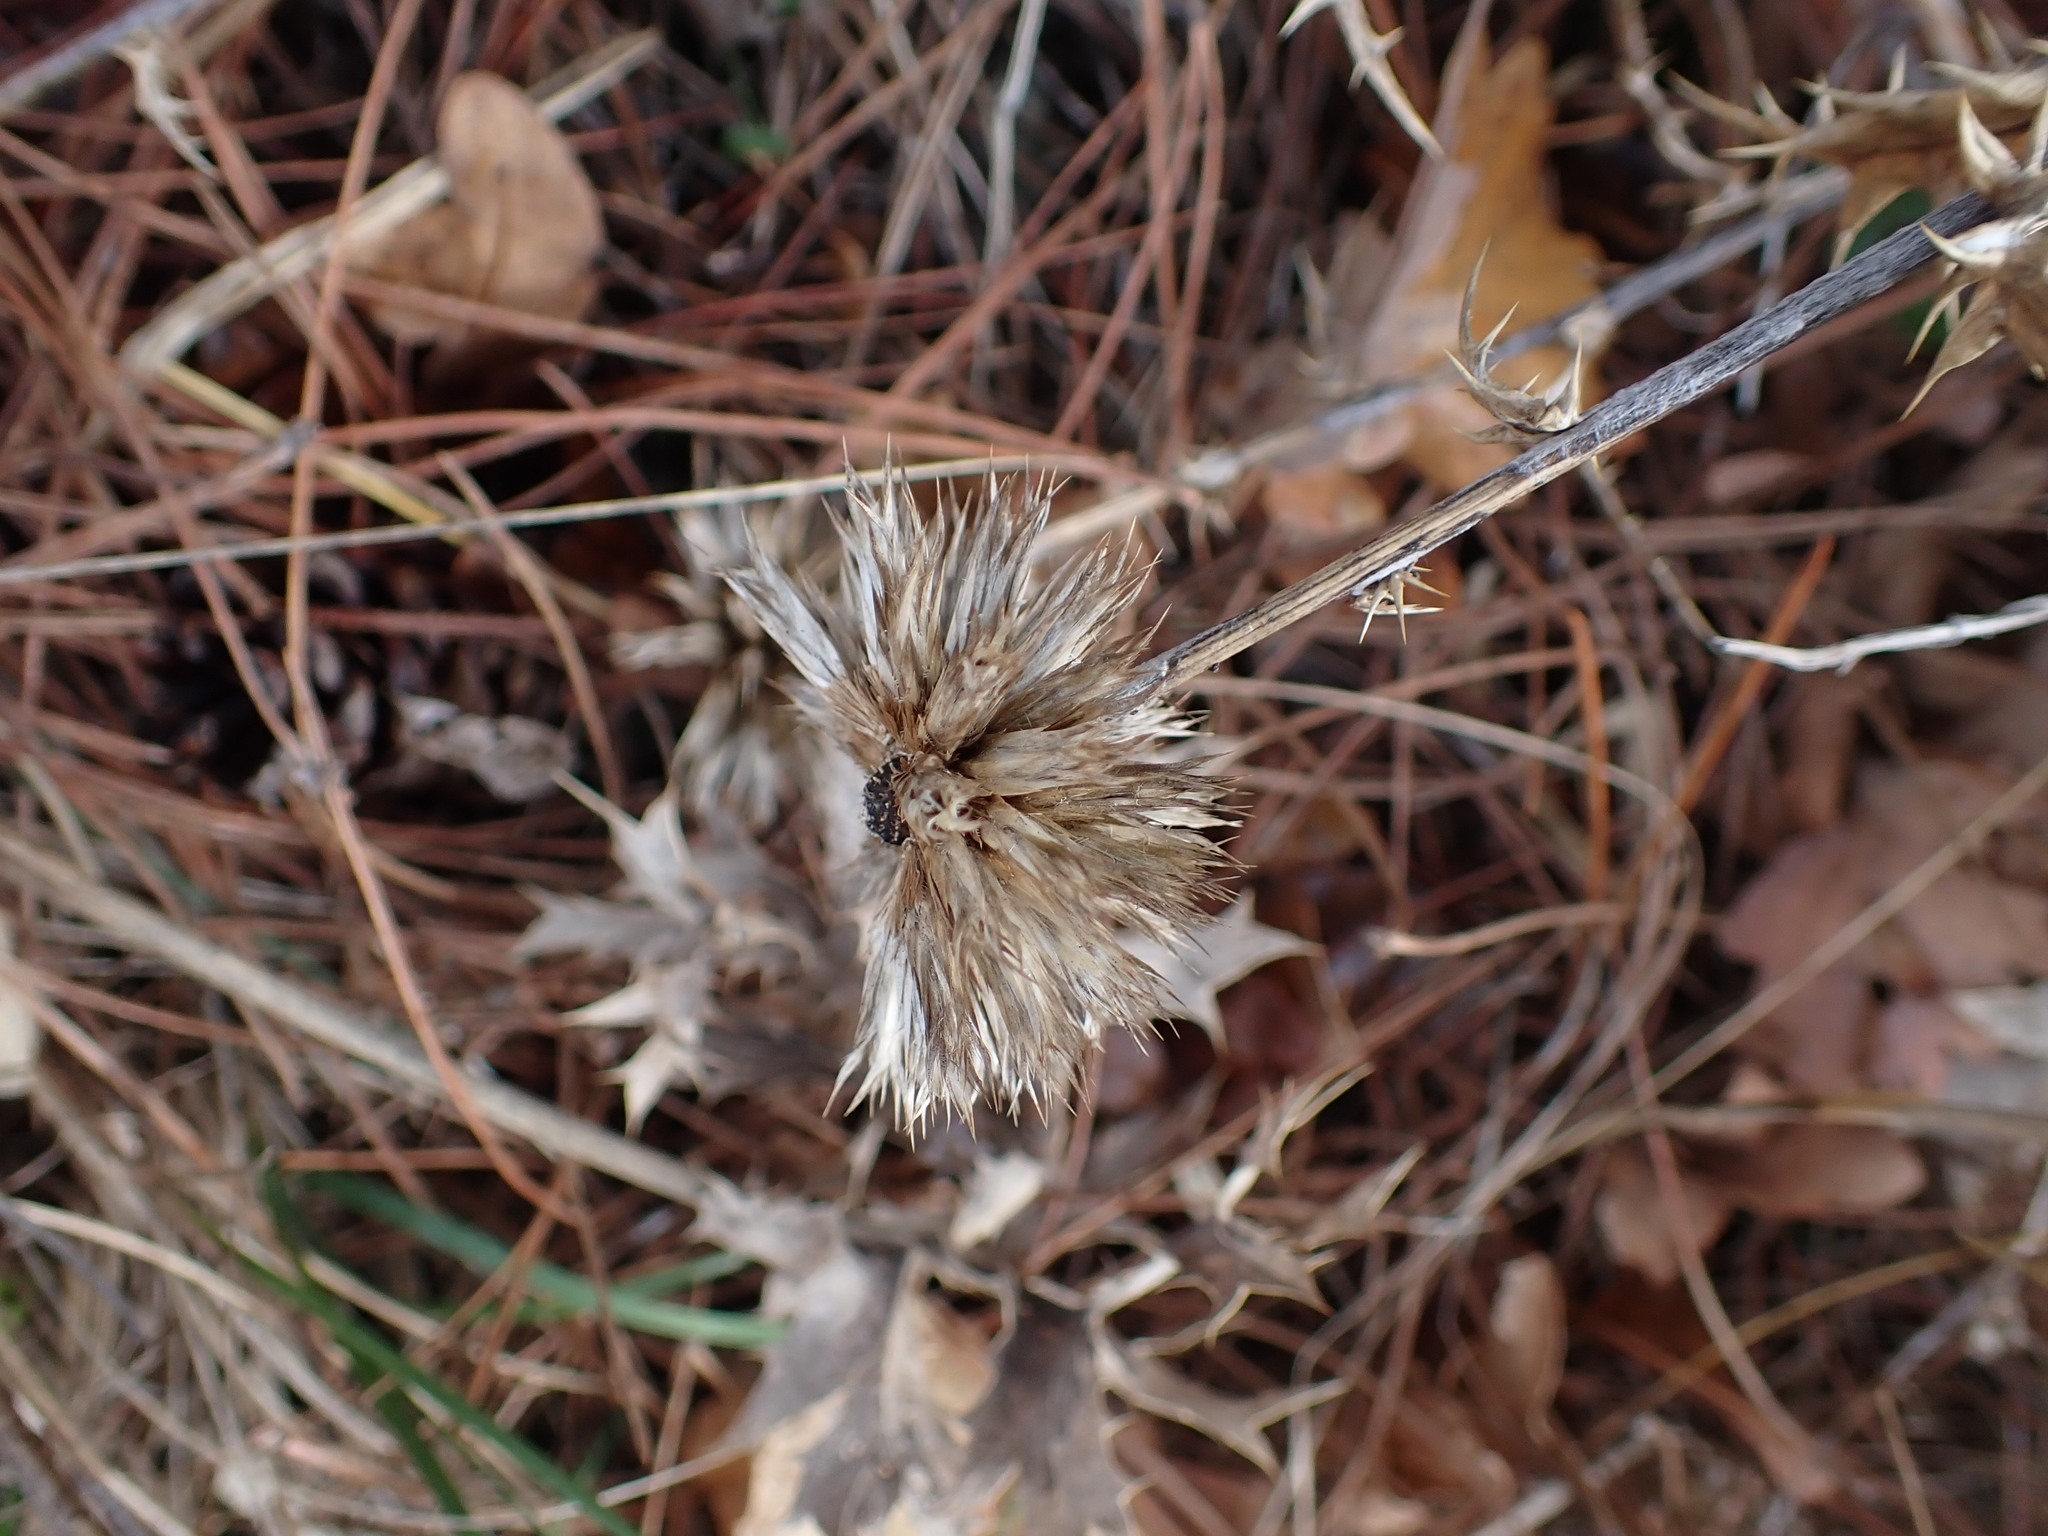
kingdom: Plantae
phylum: Tracheophyta
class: Magnoliopsida
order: Asterales
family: Asteraceae
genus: Echinops
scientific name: Echinops ritro
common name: Globe thistle
